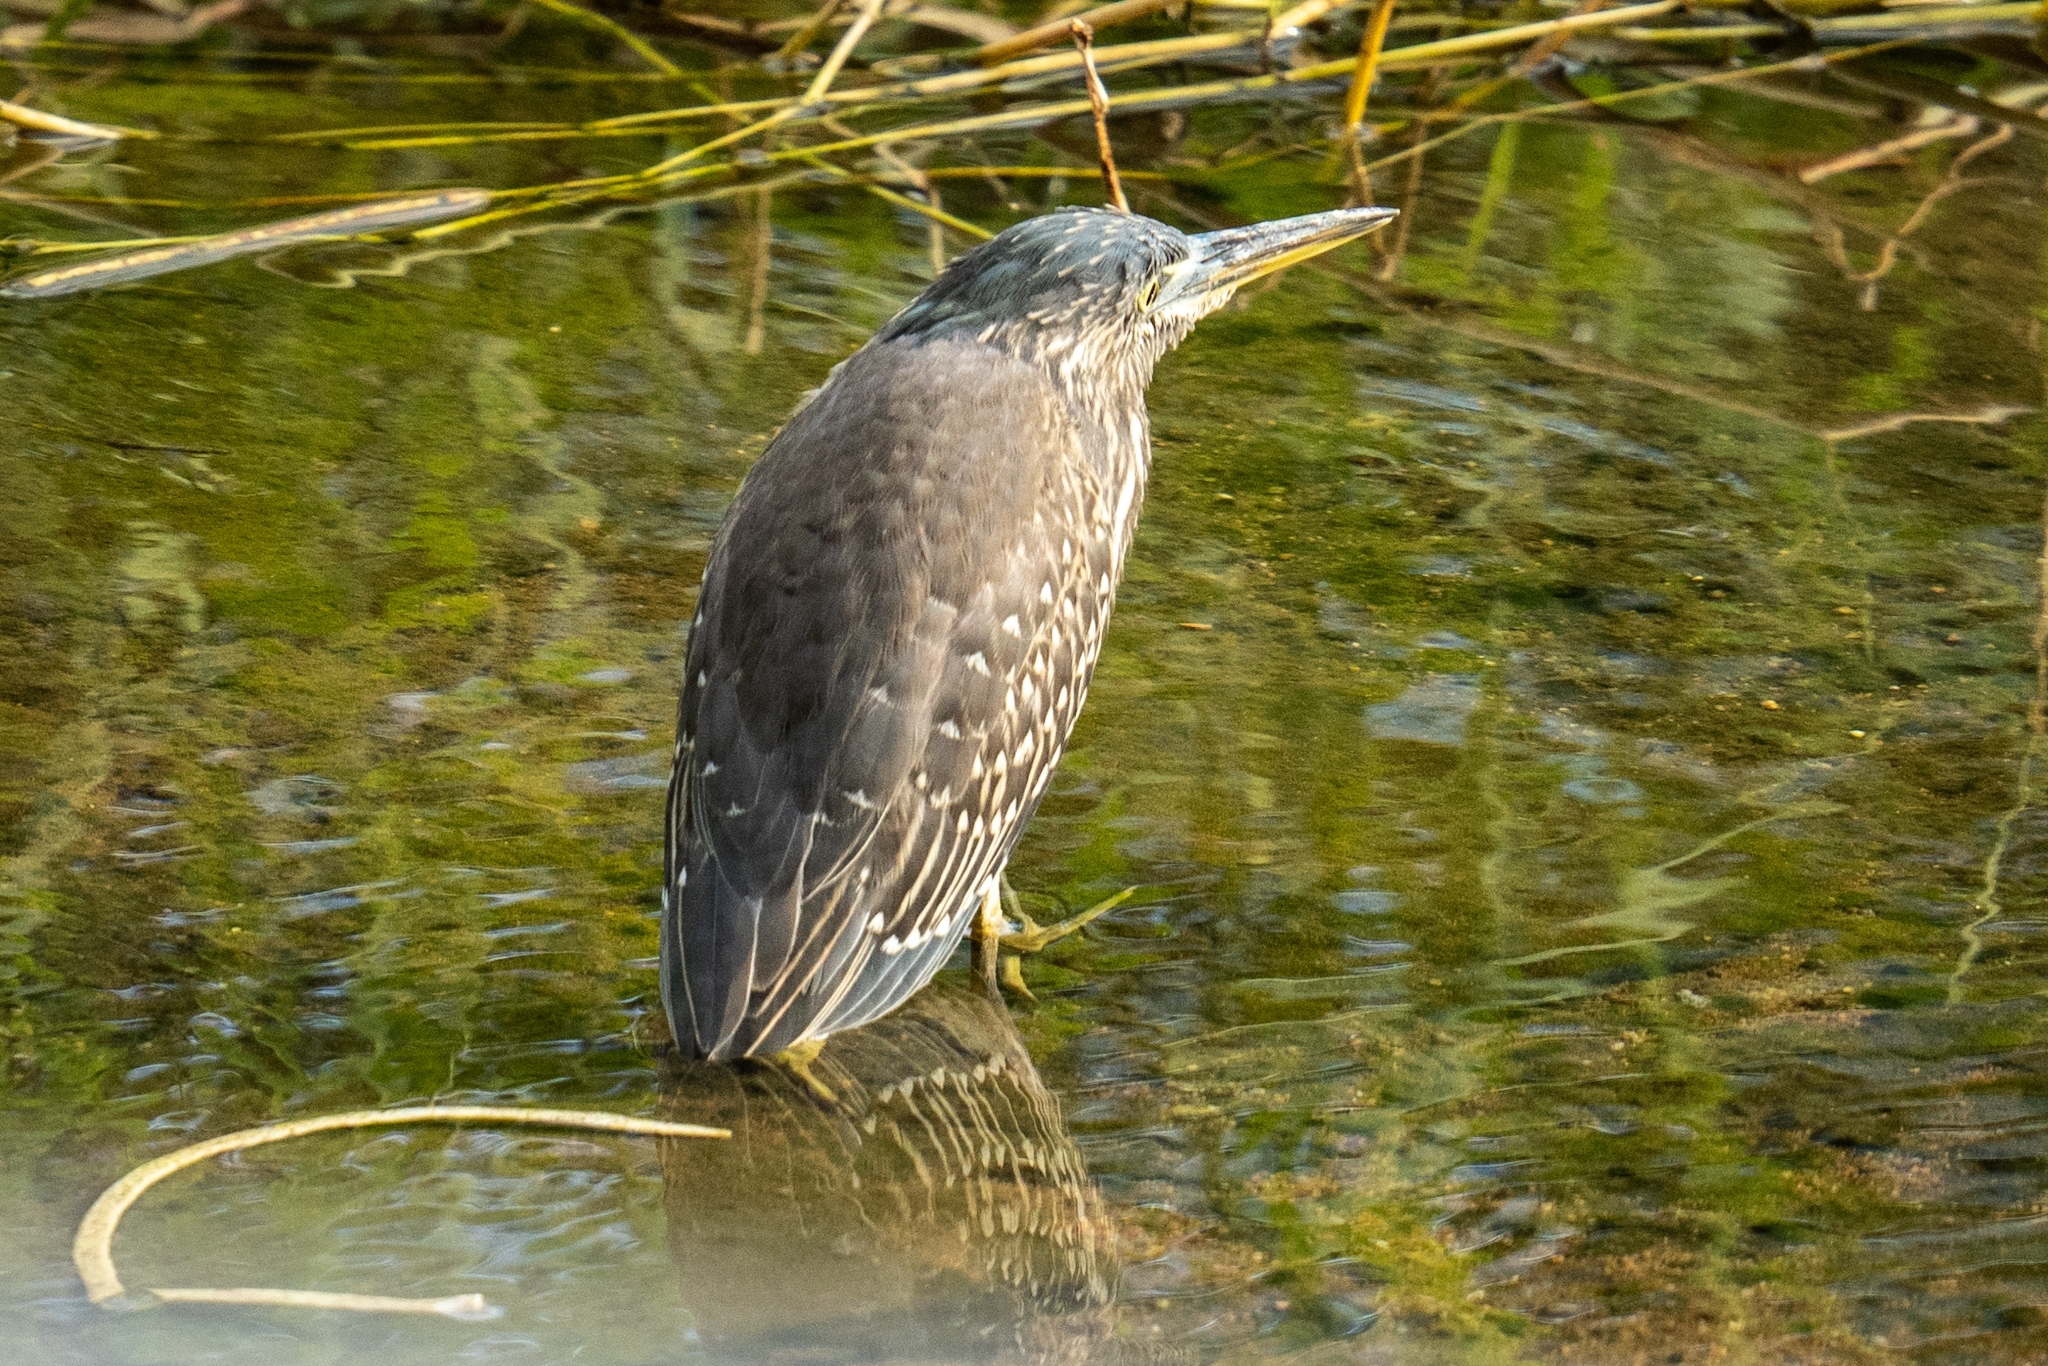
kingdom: Animalia
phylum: Chordata
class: Aves
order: Pelecaniformes
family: Ardeidae
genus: Butorides
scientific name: Butorides striata
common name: Striated heron
